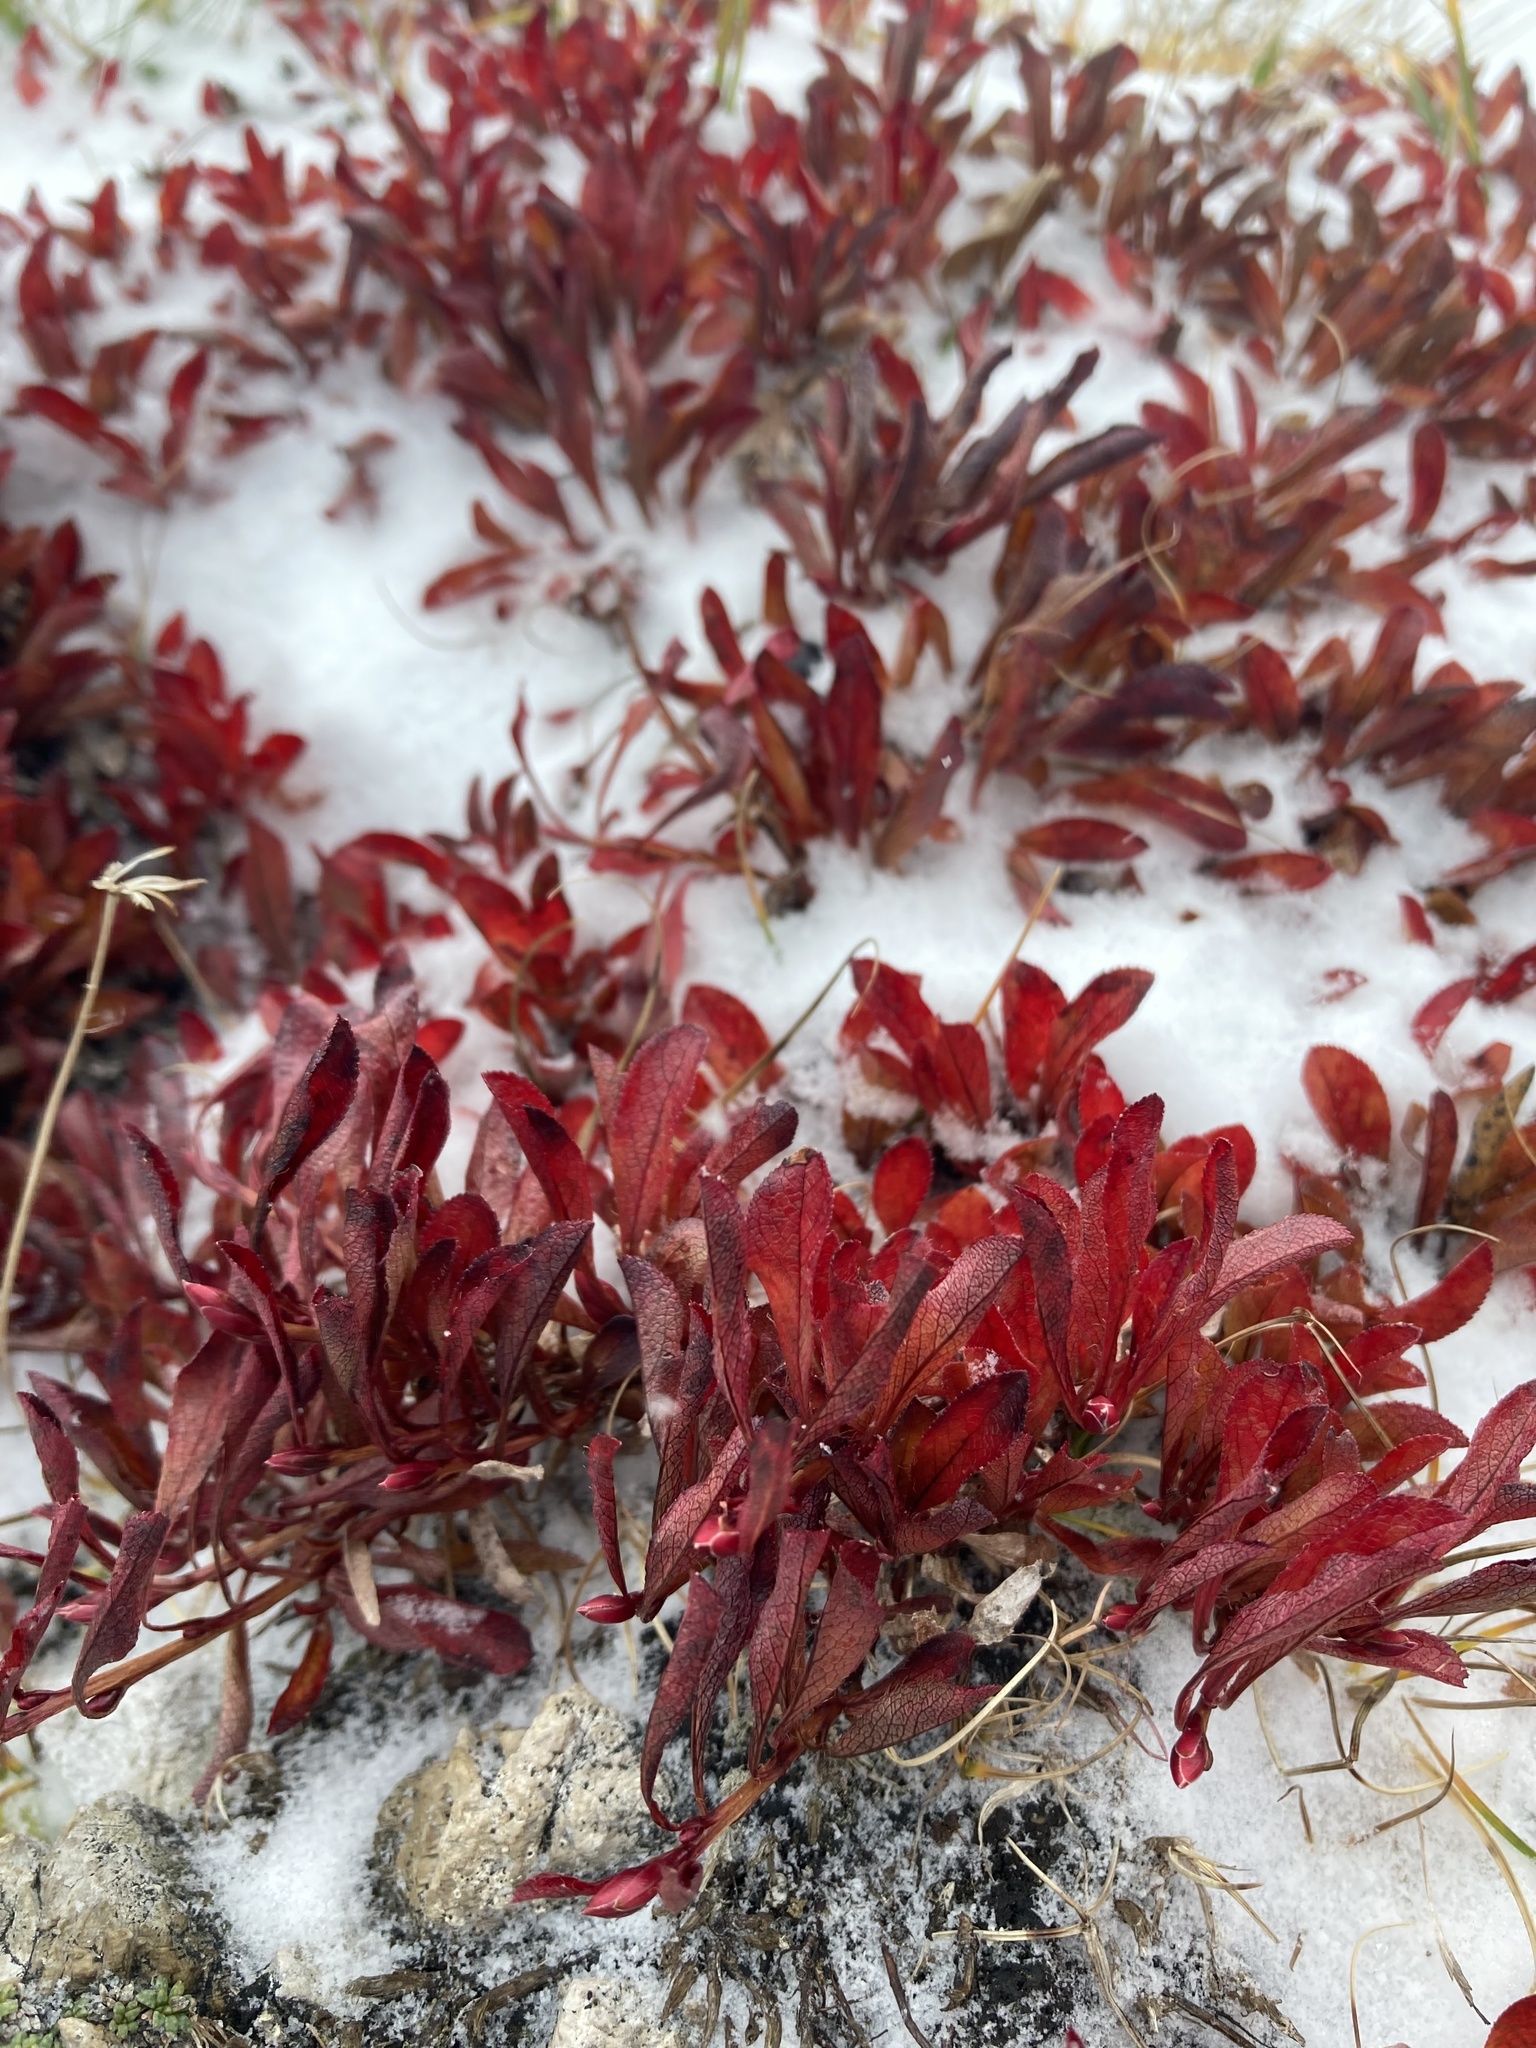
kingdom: Plantae
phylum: Tracheophyta
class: Magnoliopsida
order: Ericales
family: Ericaceae
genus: Arctostaphylos
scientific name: Arctostaphylos alpinus
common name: Alpine bearberry
